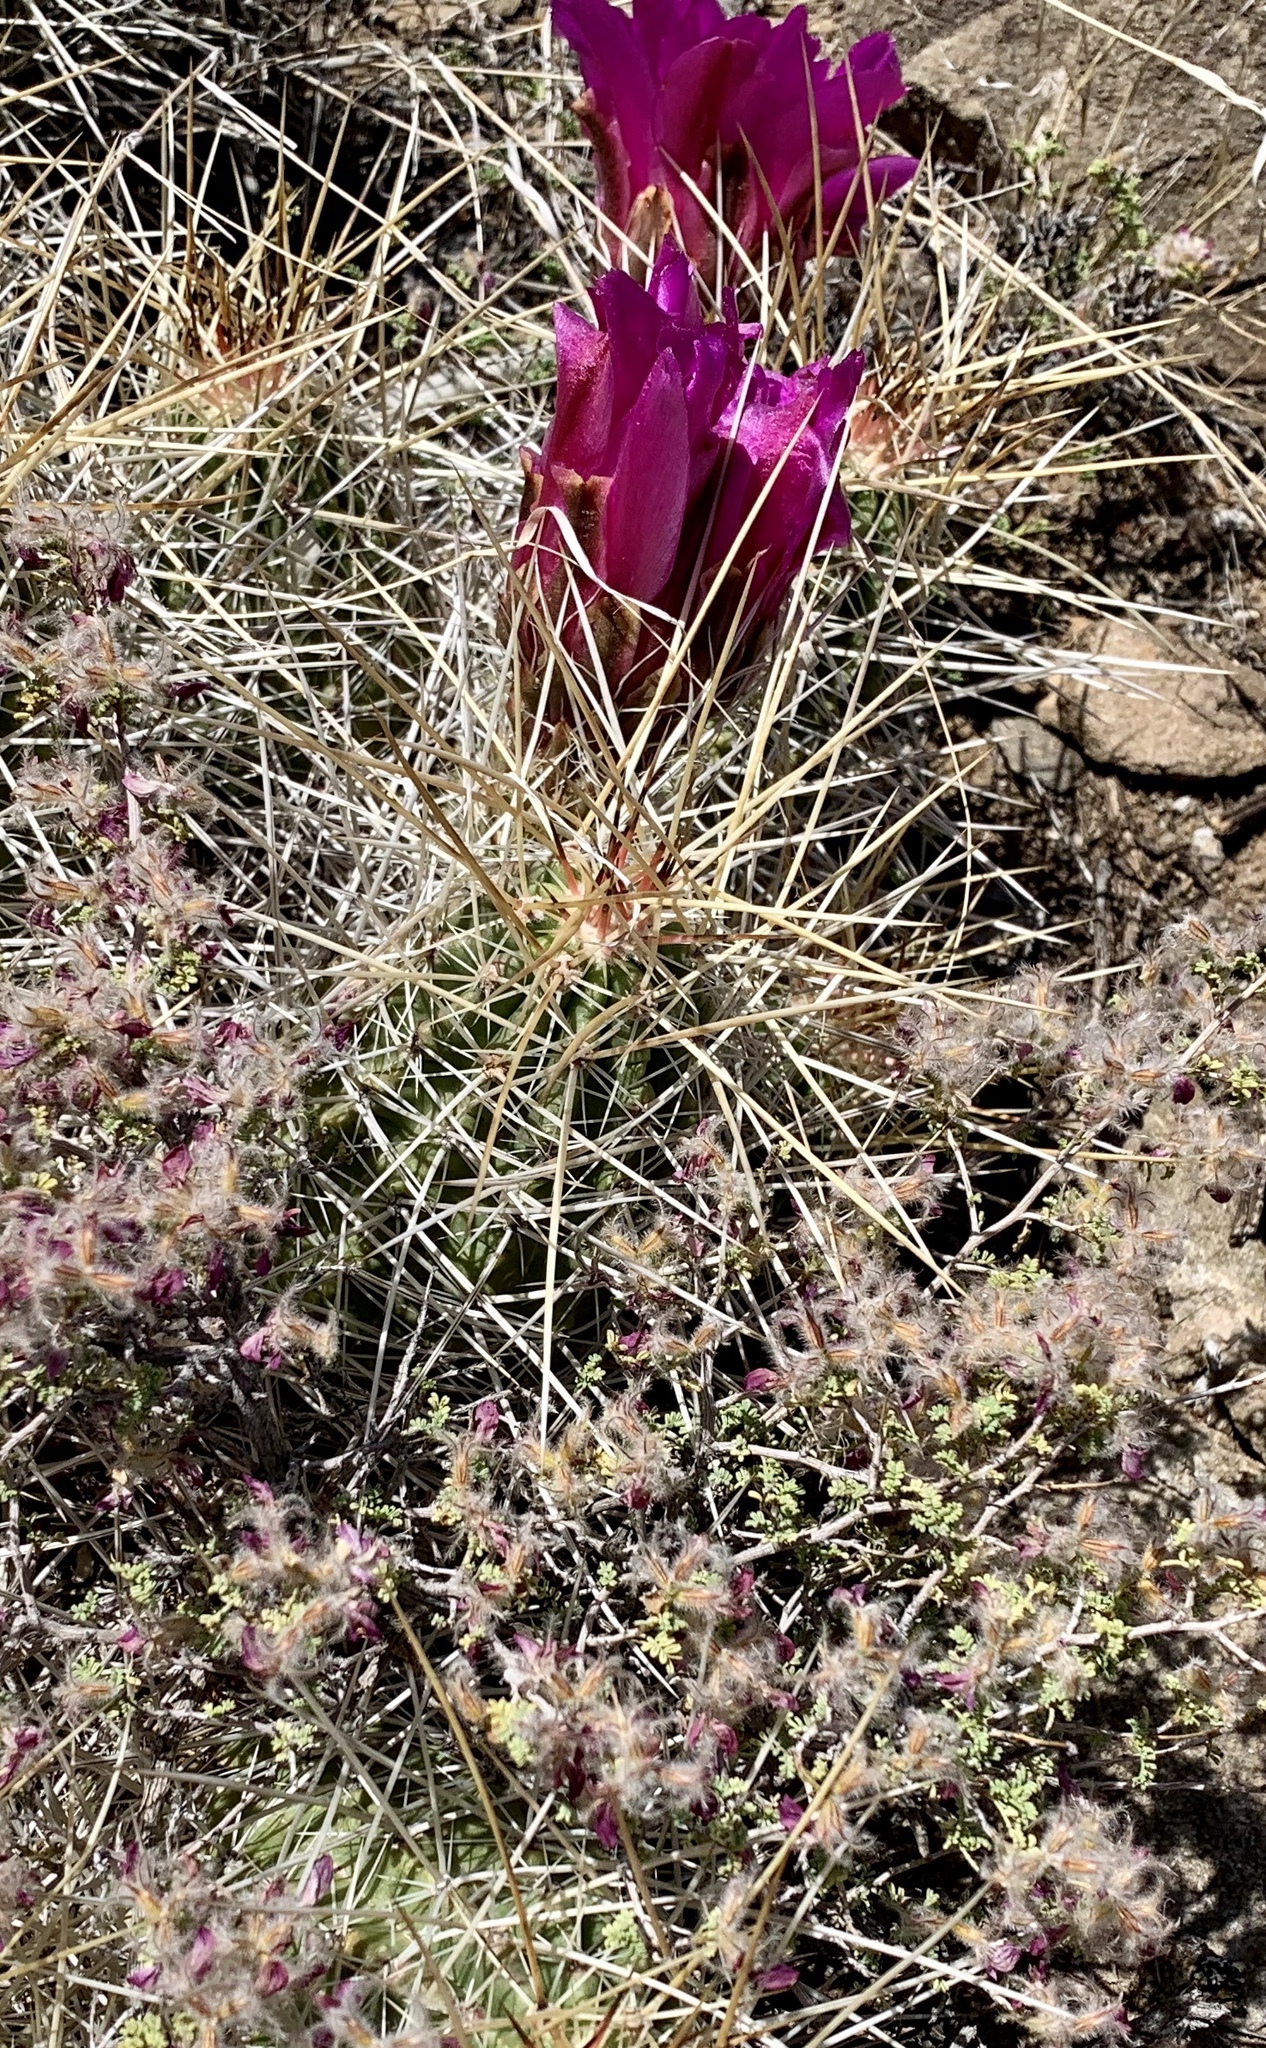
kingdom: Plantae
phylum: Tracheophyta
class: Magnoliopsida
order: Caryophyllales
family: Cactaceae
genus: Echinocereus
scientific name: Echinocereus stramineus
